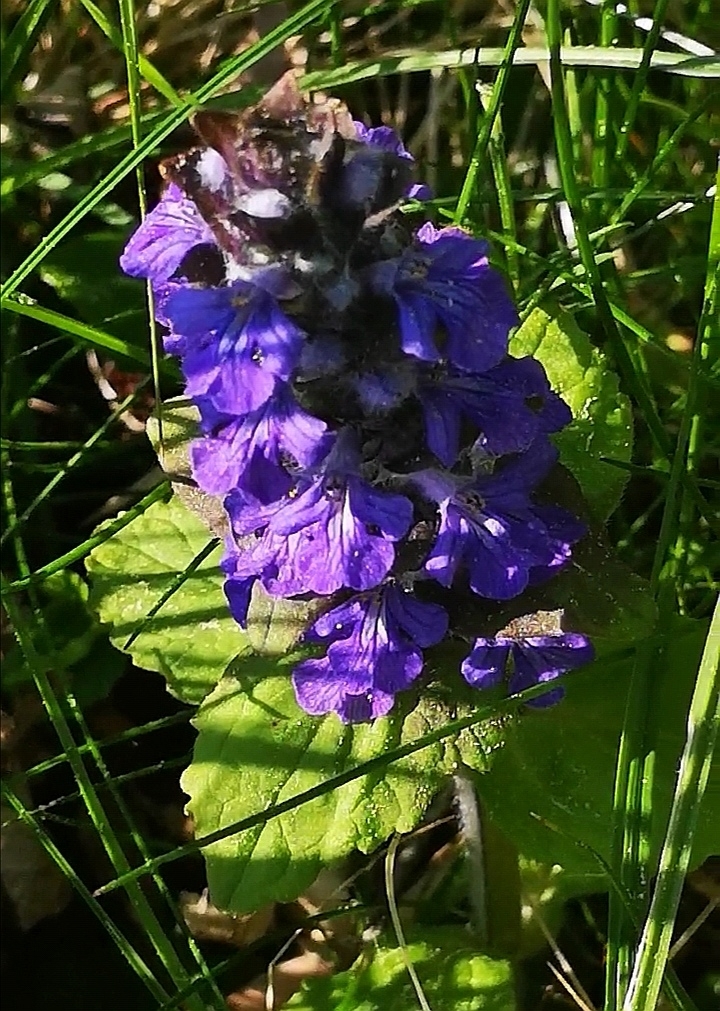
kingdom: Plantae
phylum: Tracheophyta
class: Magnoliopsida
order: Lamiales
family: Lamiaceae
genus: Ajuga
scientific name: Ajuga reptans
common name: Bugle
